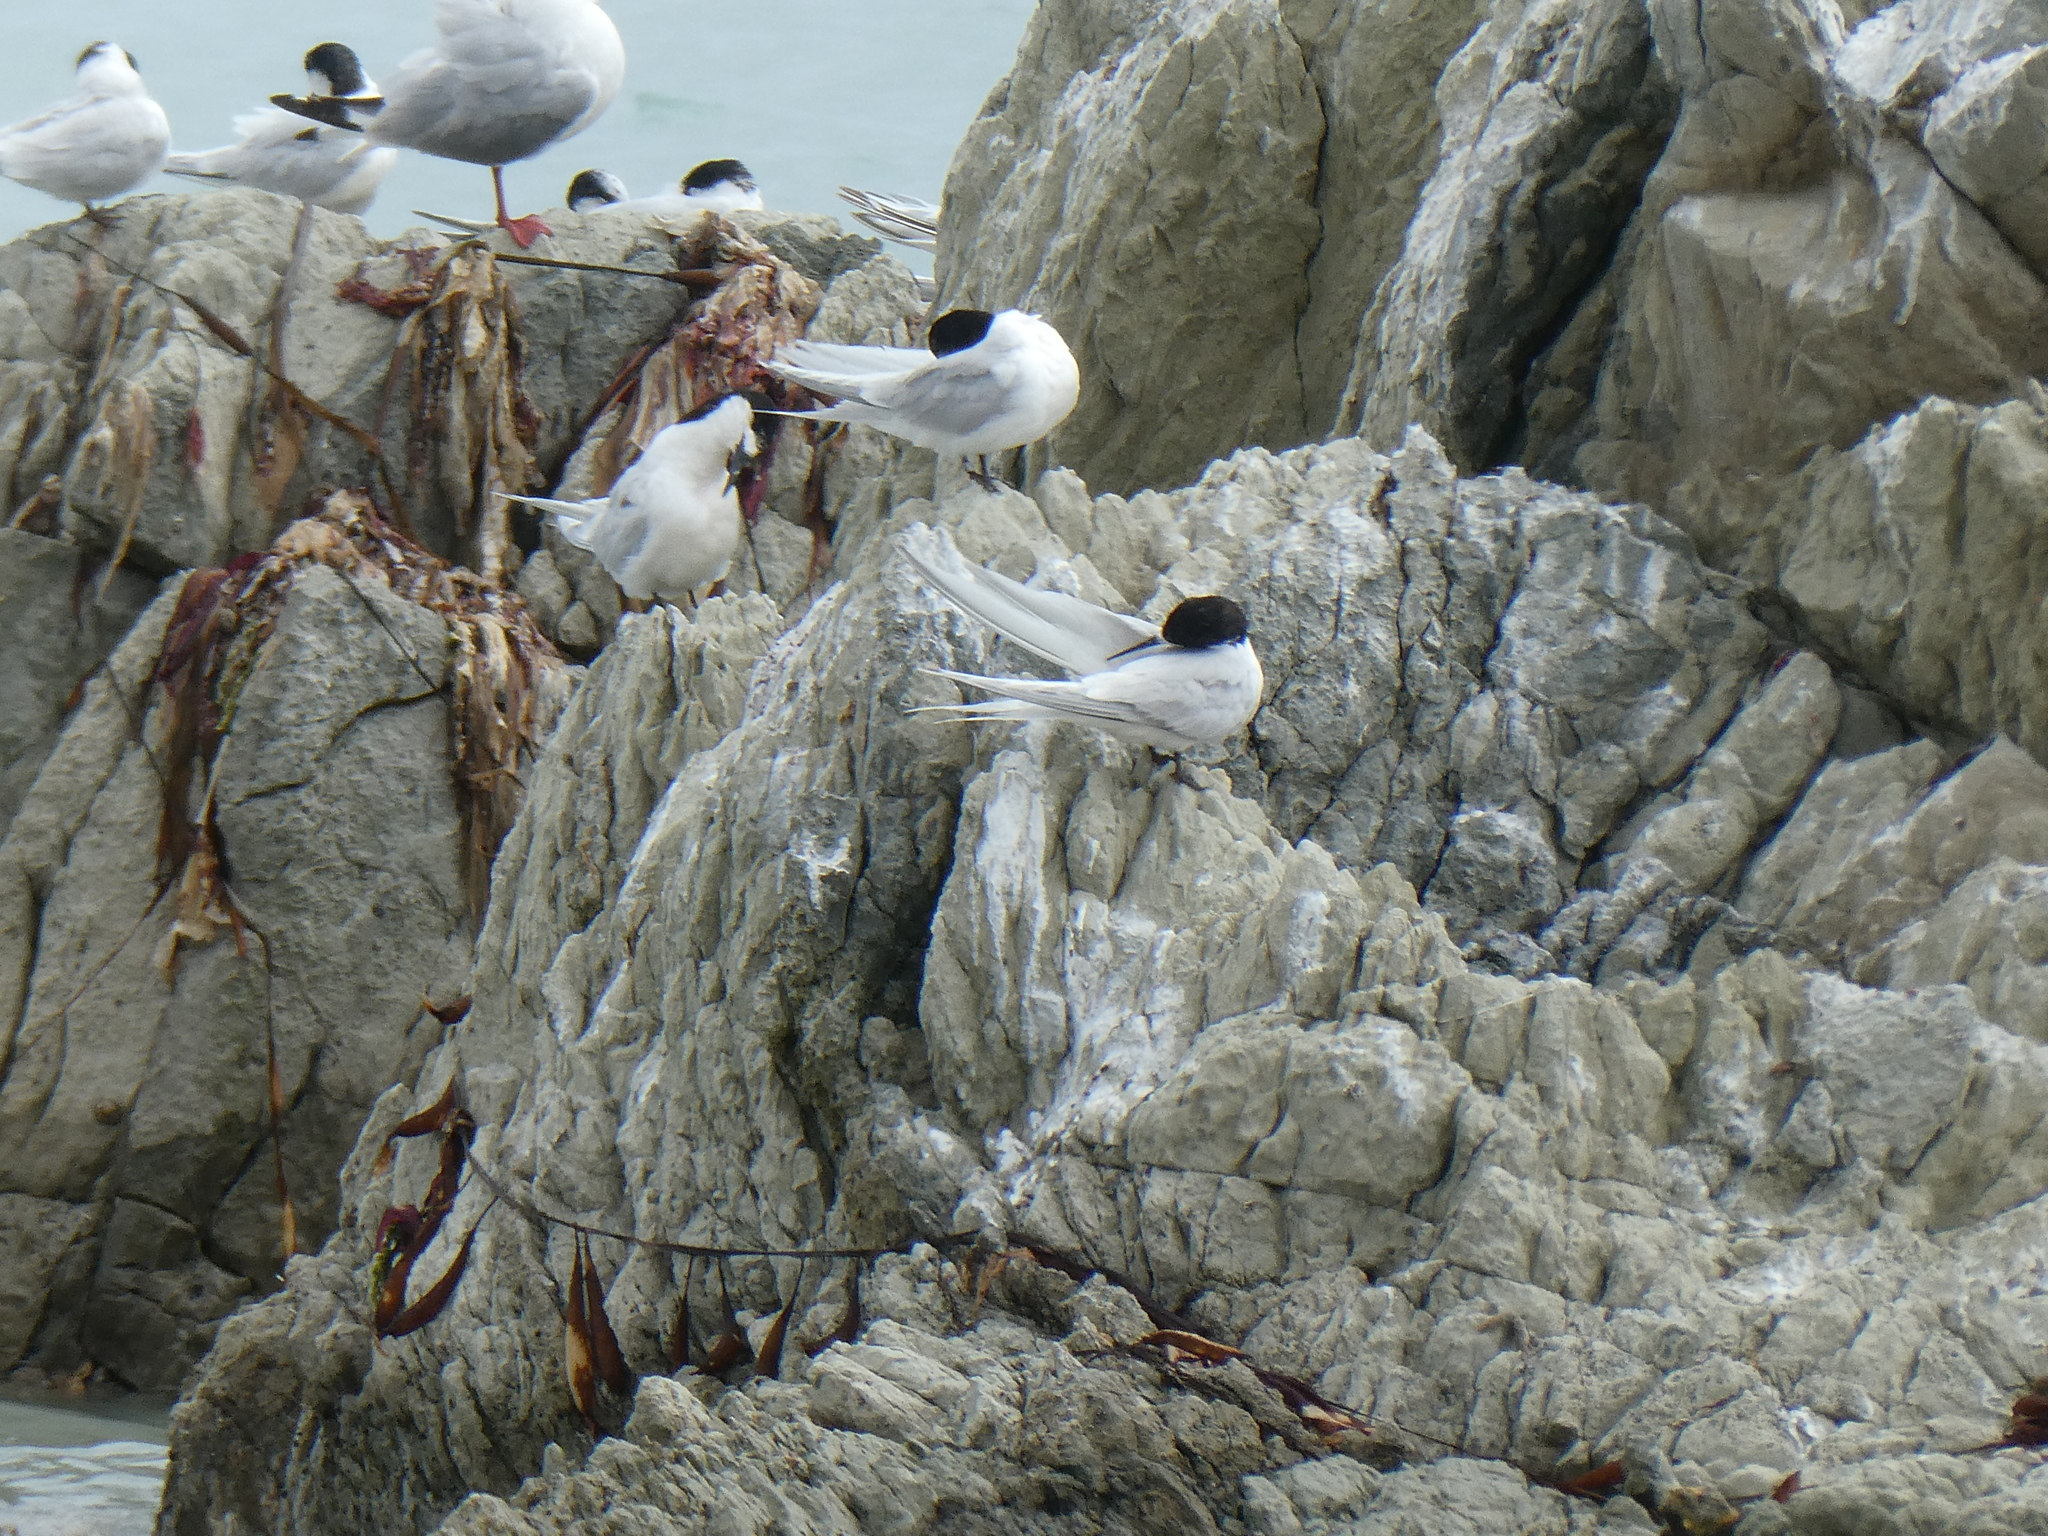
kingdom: Animalia
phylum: Chordata
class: Aves
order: Charadriiformes
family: Laridae
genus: Sterna
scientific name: Sterna striata
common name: White-fronted tern
